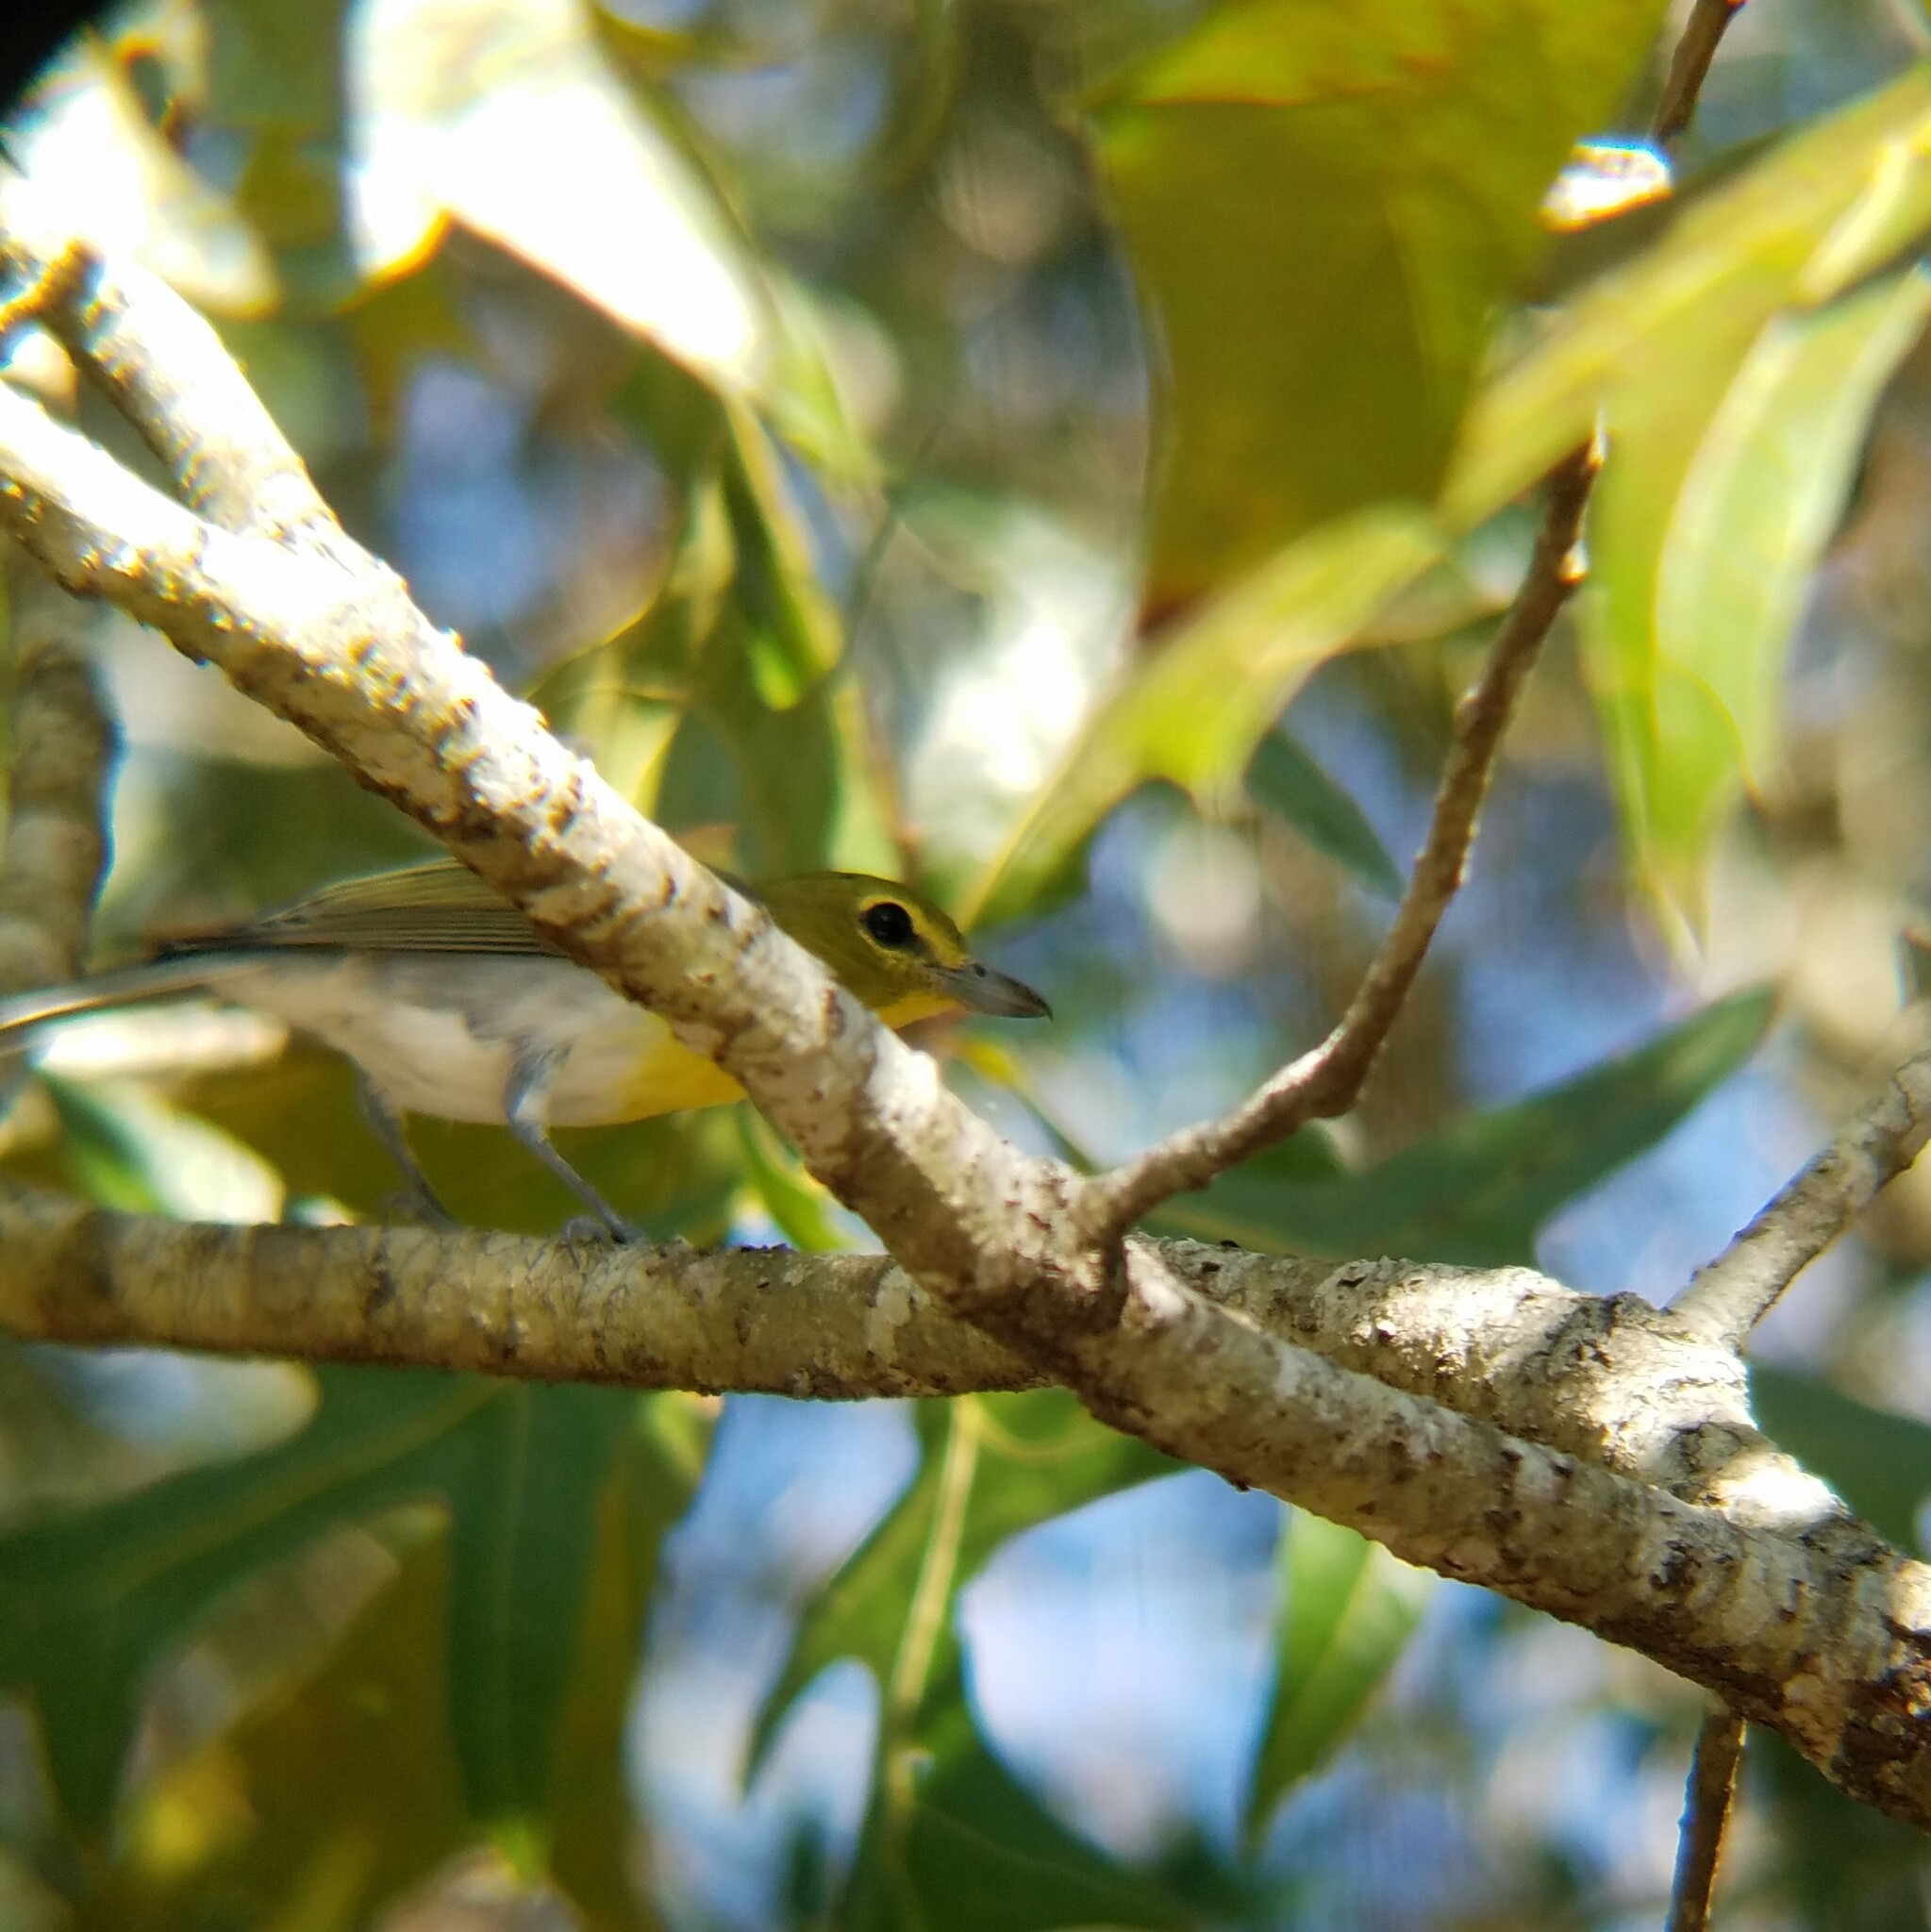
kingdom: Animalia
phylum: Chordata
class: Aves
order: Passeriformes
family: Vireonidae
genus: Vireo
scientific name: Vireo flavifrons
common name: Yellow-throated vireo
